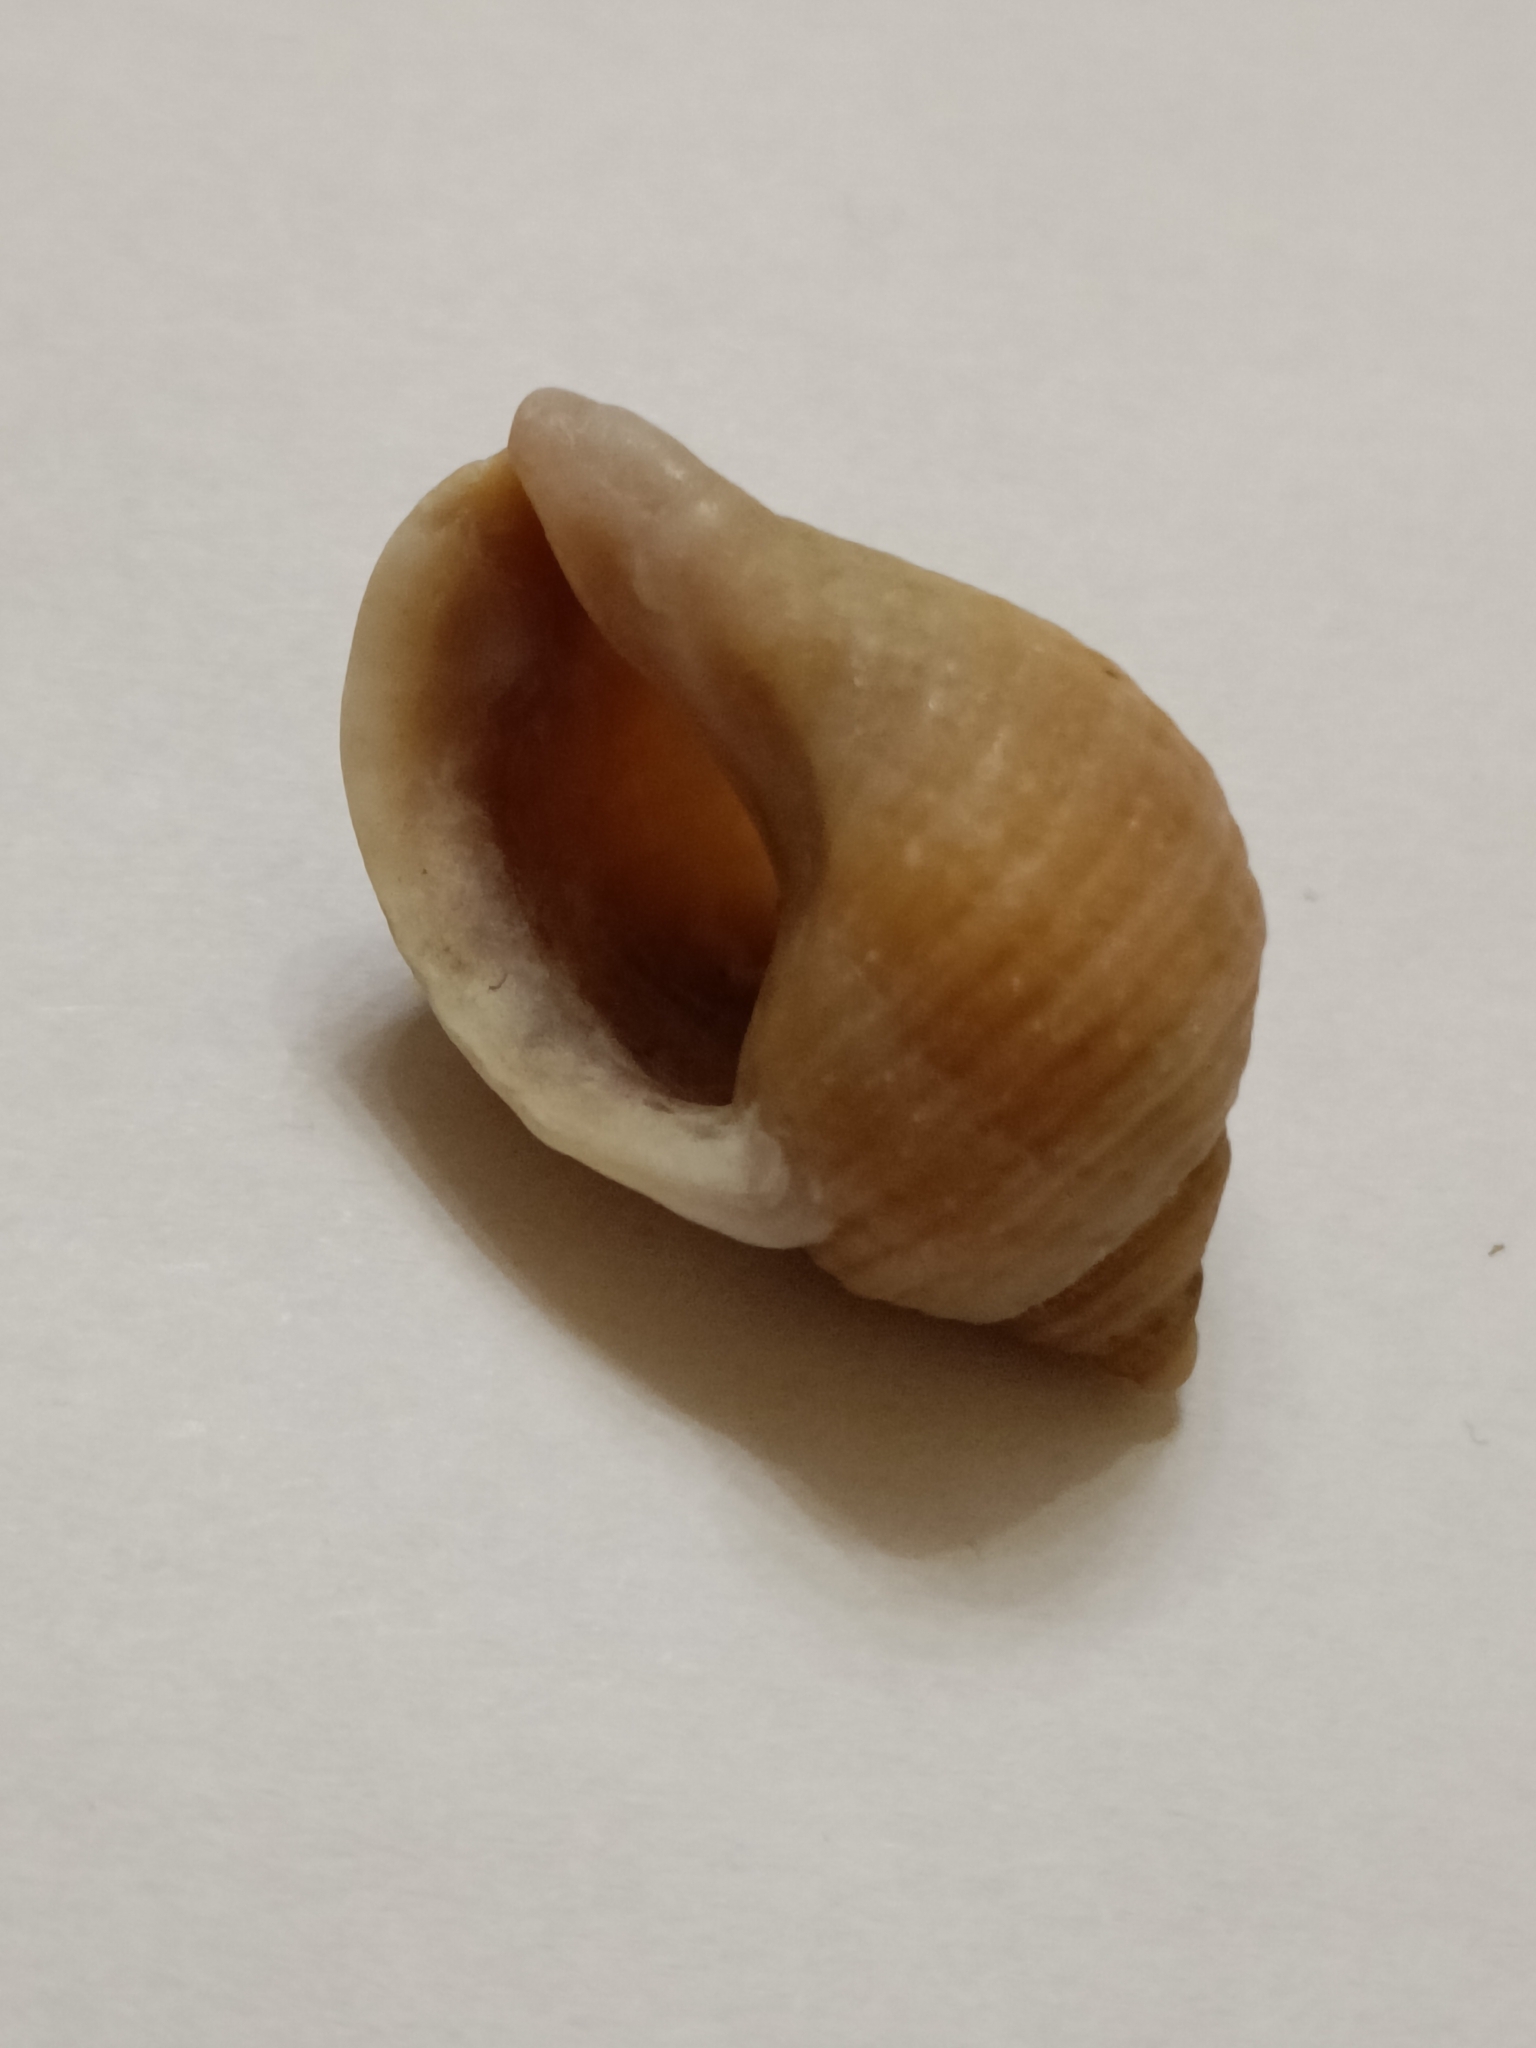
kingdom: Animalia
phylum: Mollusca
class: Gastropoda
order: Neogastropoda
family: Muricidae
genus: Nucella
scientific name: Nucella lapillus
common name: Dog whelk
